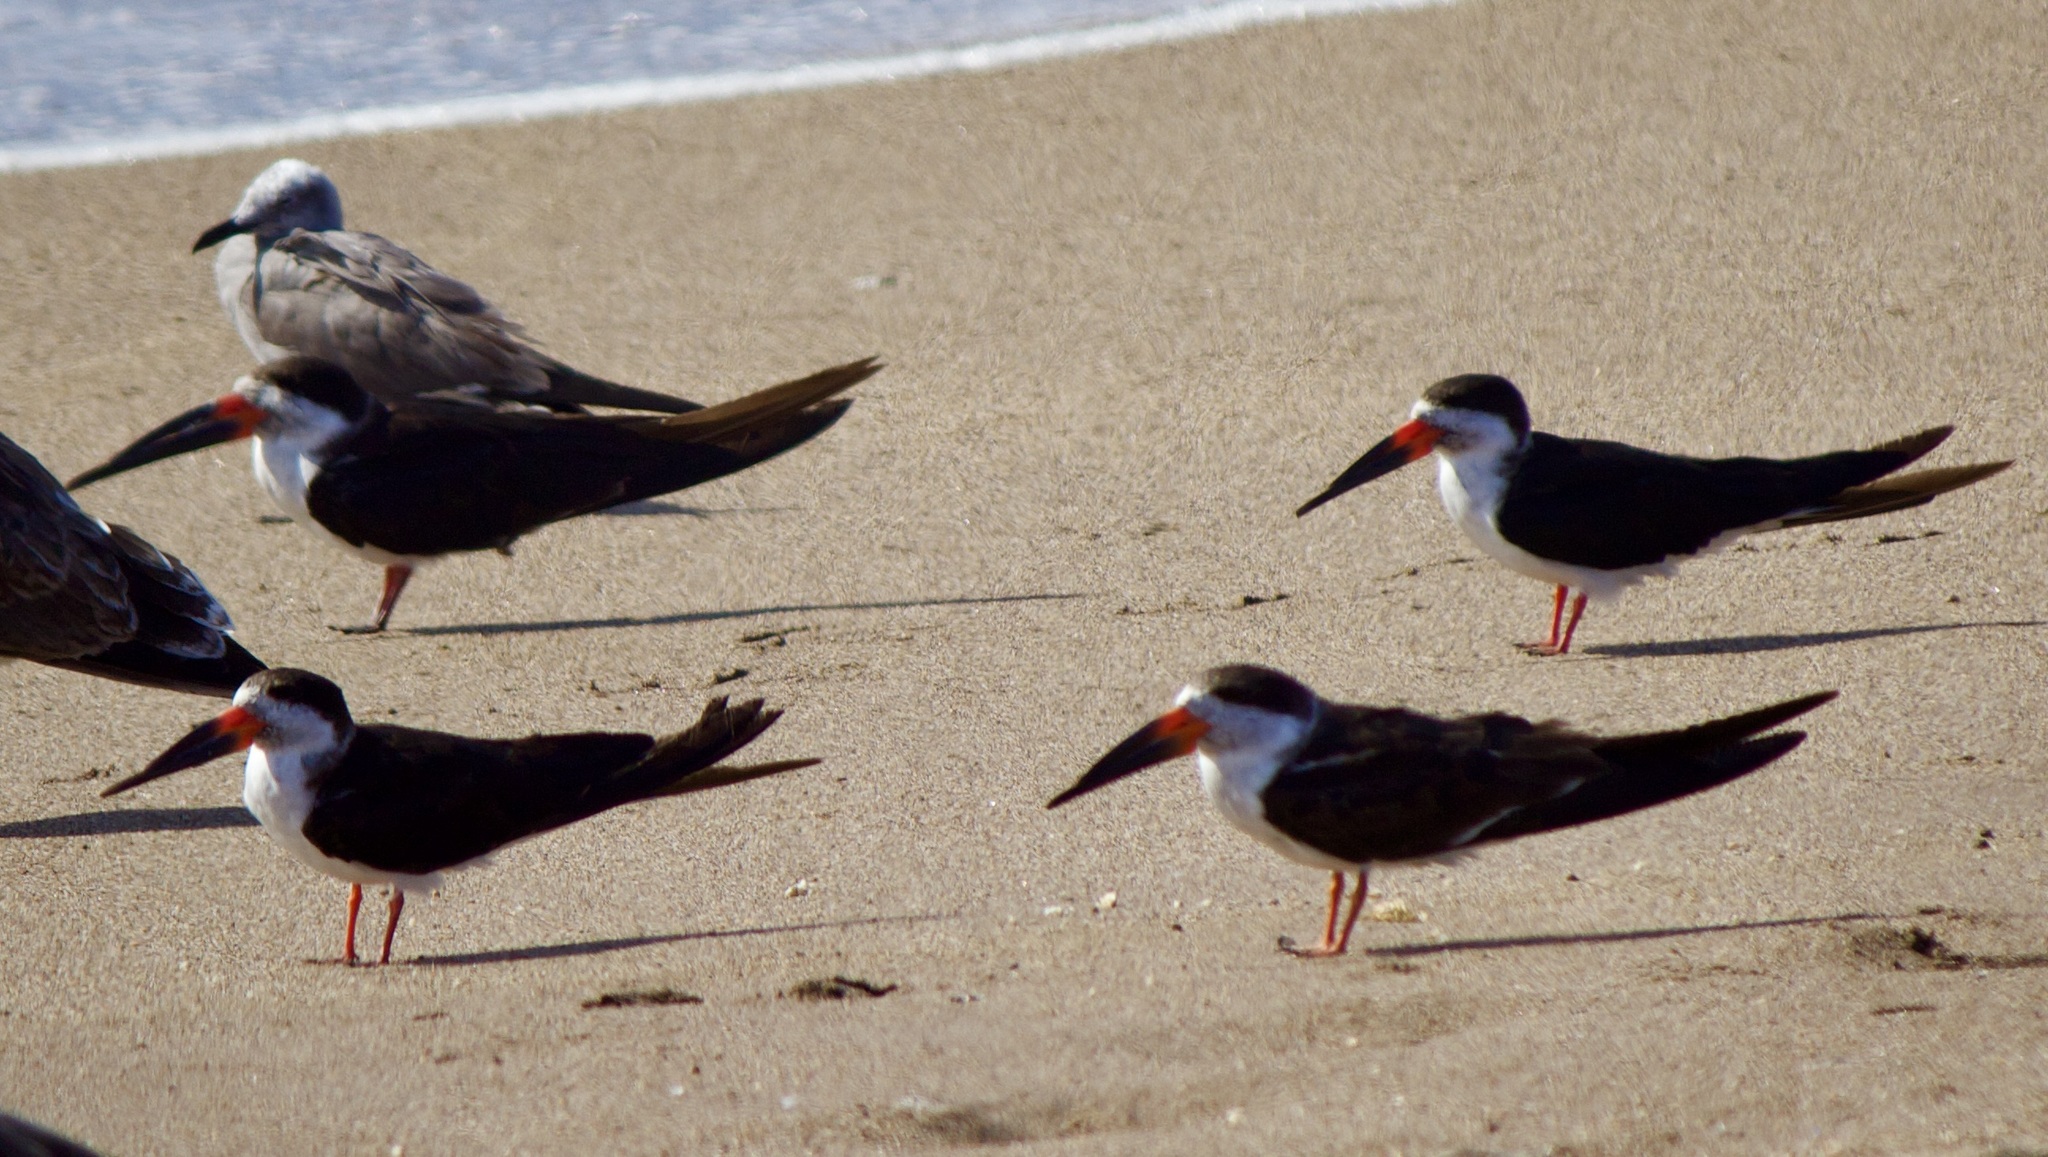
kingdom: Animalia
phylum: Chordata
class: Aves
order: Charadriiformes
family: Laridae
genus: Rynchops
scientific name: Rynchops niger
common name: Black skimmer
